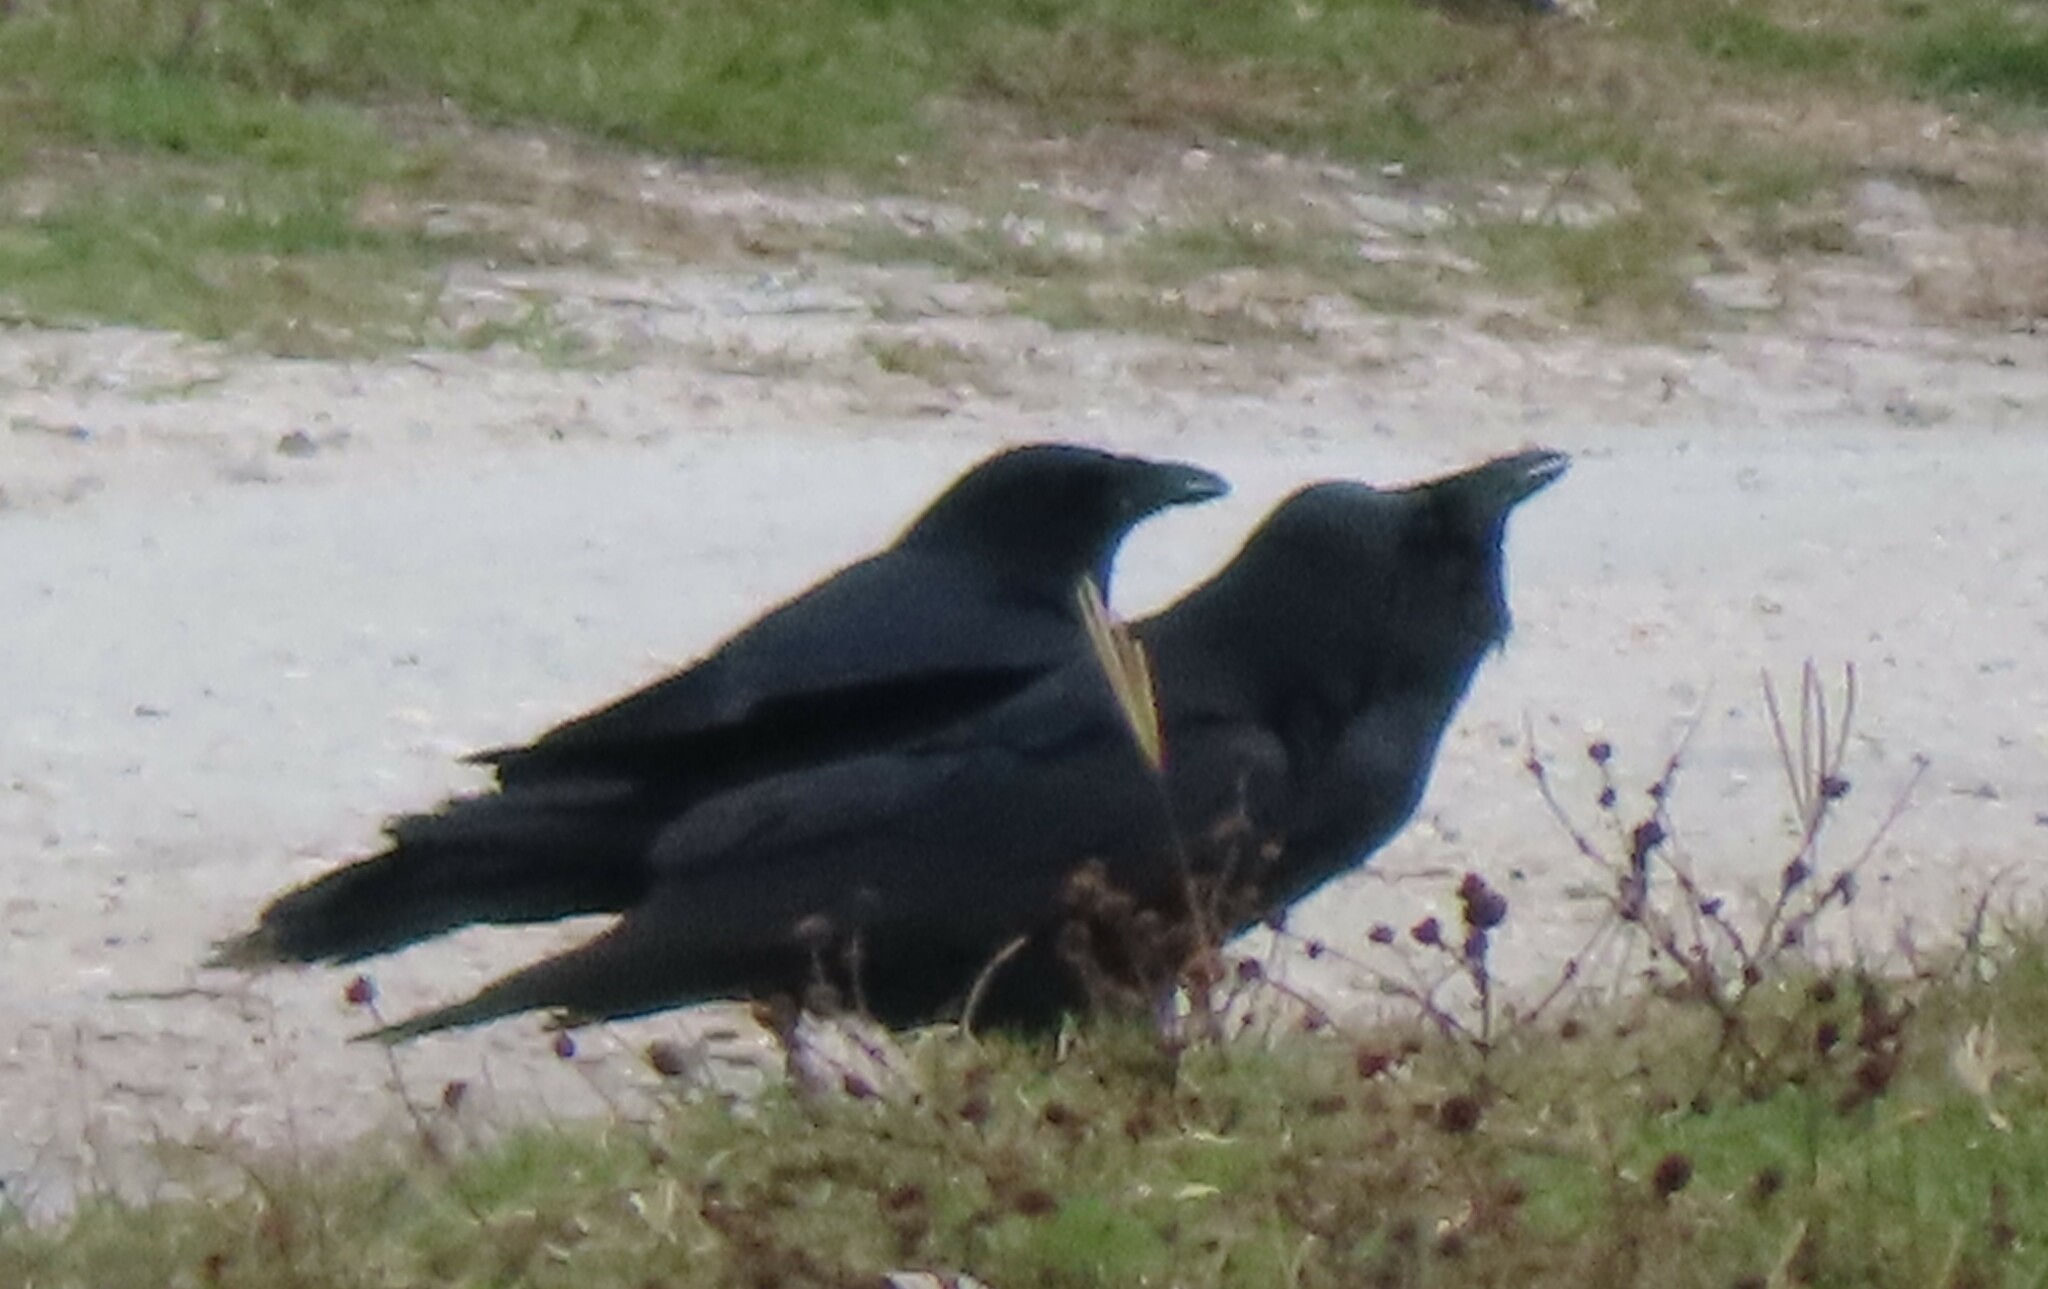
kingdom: Animalia
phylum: Chordata
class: Aves
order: Passeriformes
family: Corvidae
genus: Corvus
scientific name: Corvus ossifragus
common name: Fish crow
